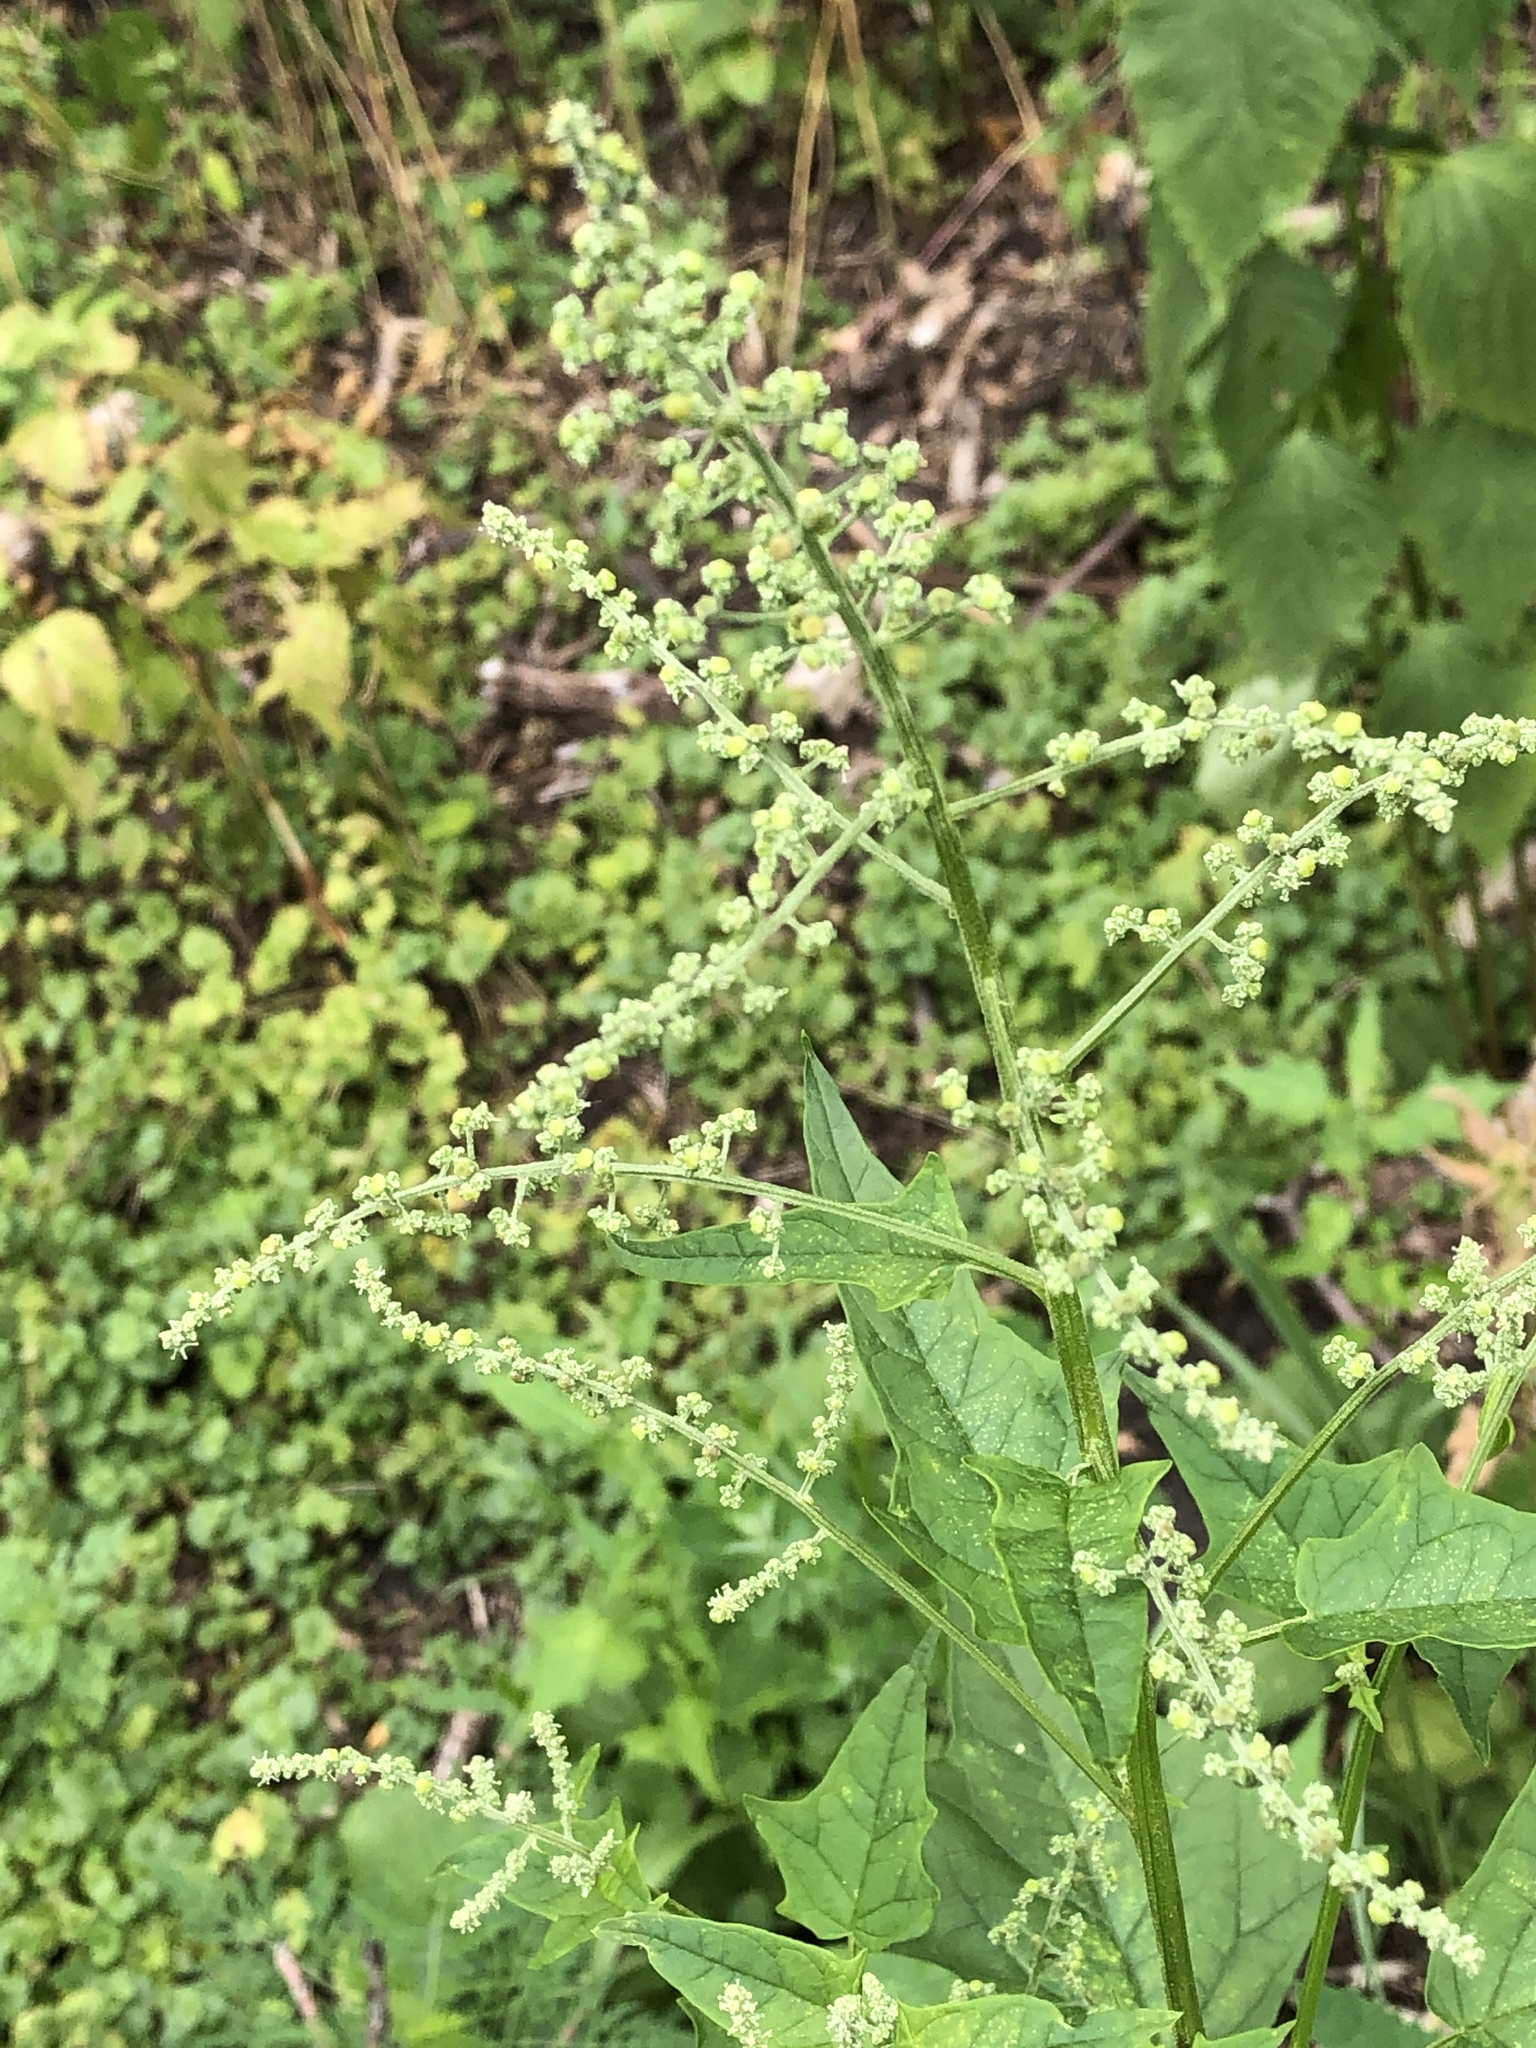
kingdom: Plantae
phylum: Tracheophyta
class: Magnoliopsida
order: Caryophyllales
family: Amaranthaceae
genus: Chenopodiastrum
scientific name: Chenopodiastrum hybridum
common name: Mapleleaf goosefoot
